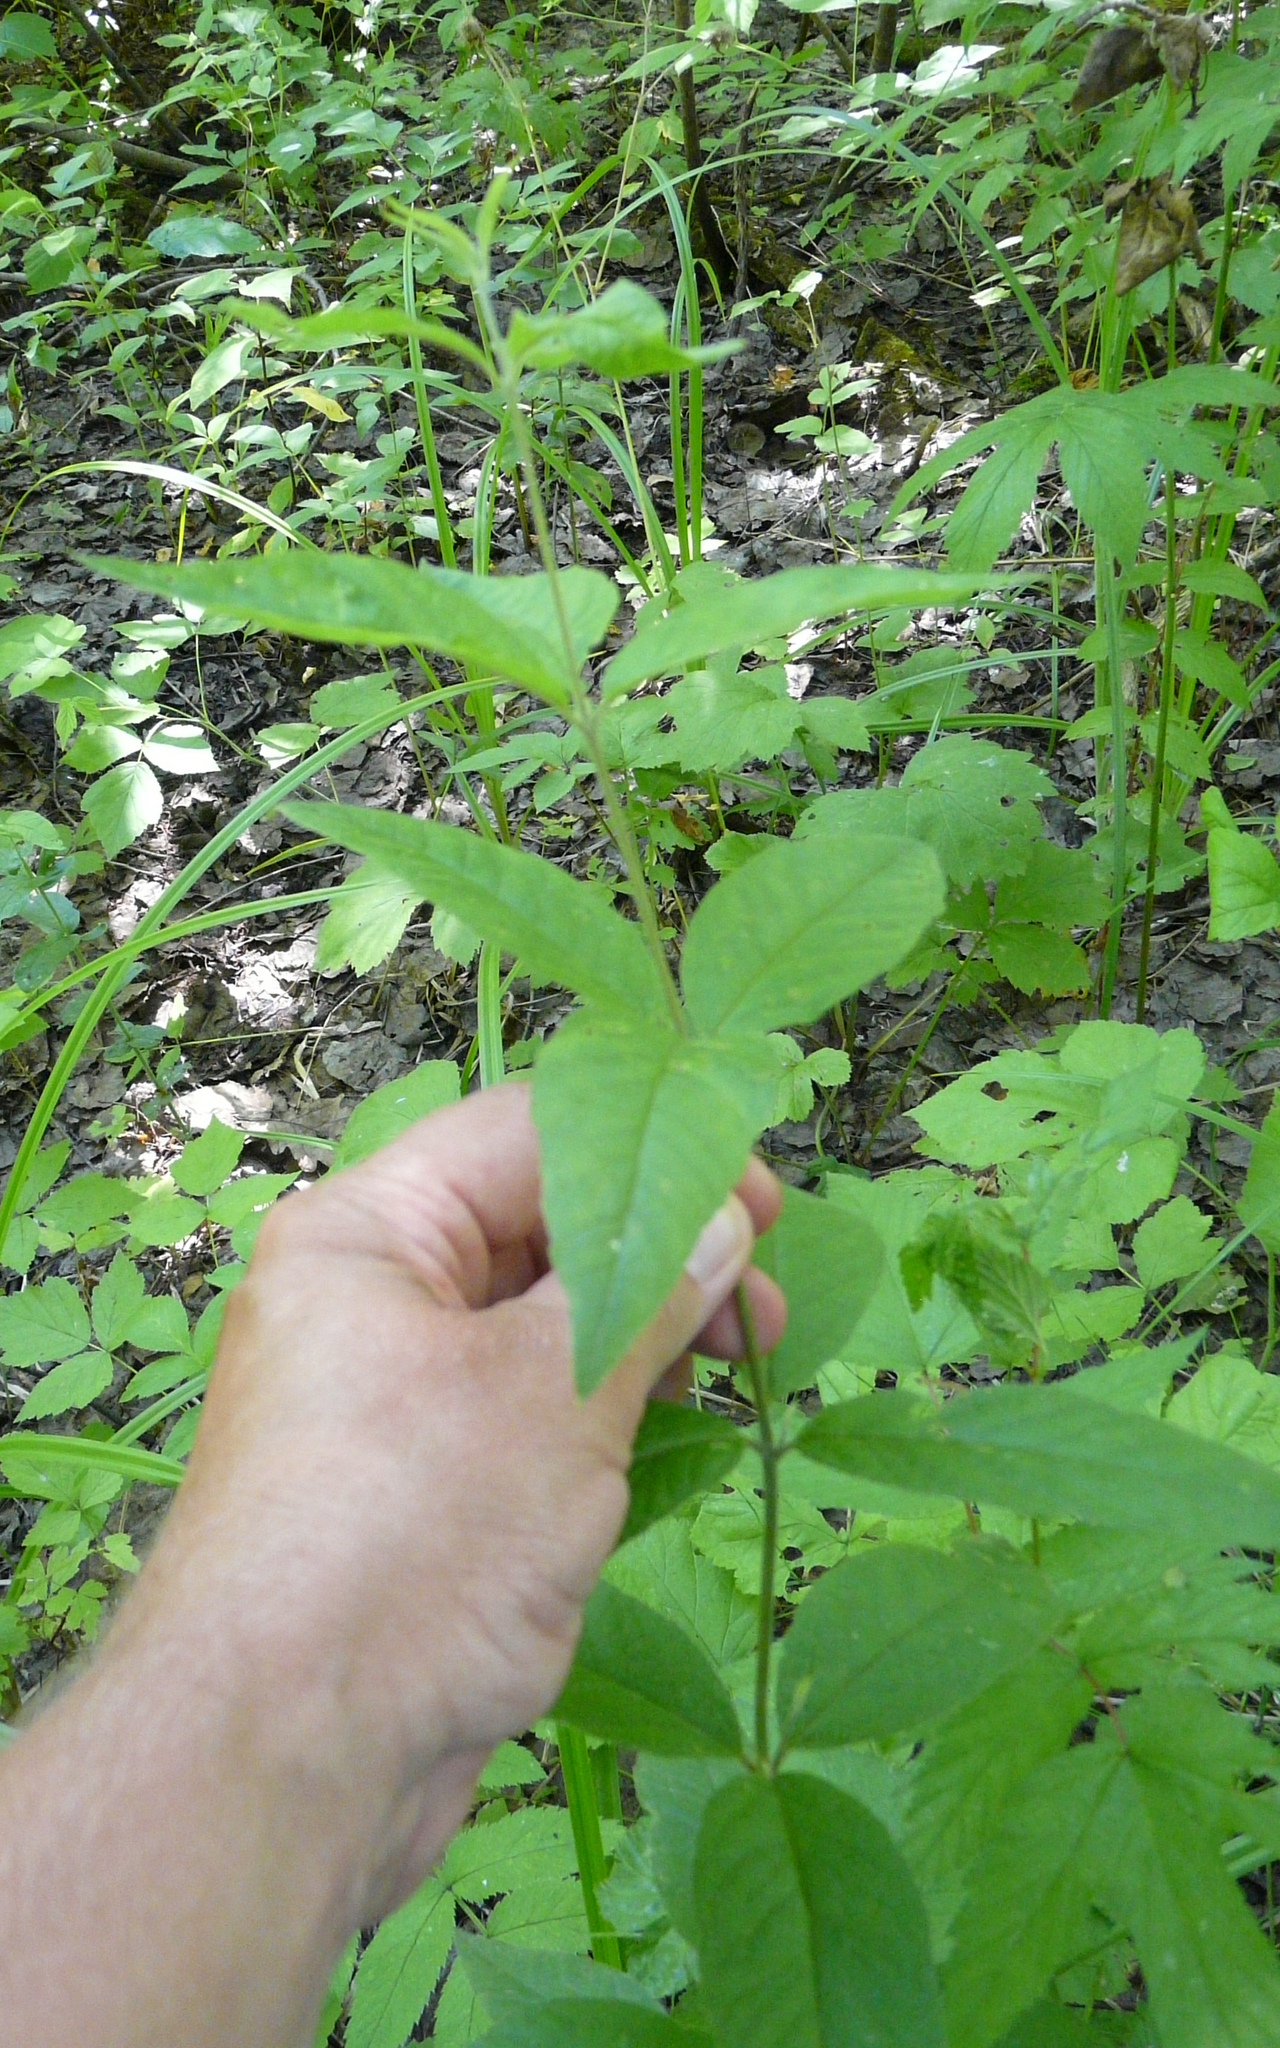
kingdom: Plantae
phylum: Tracheophyta
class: Magnoliopsida
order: Ericales
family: Primulaceae
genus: Lysimachia
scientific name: Lysimachia vulgaris
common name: Yellow loosestrife
